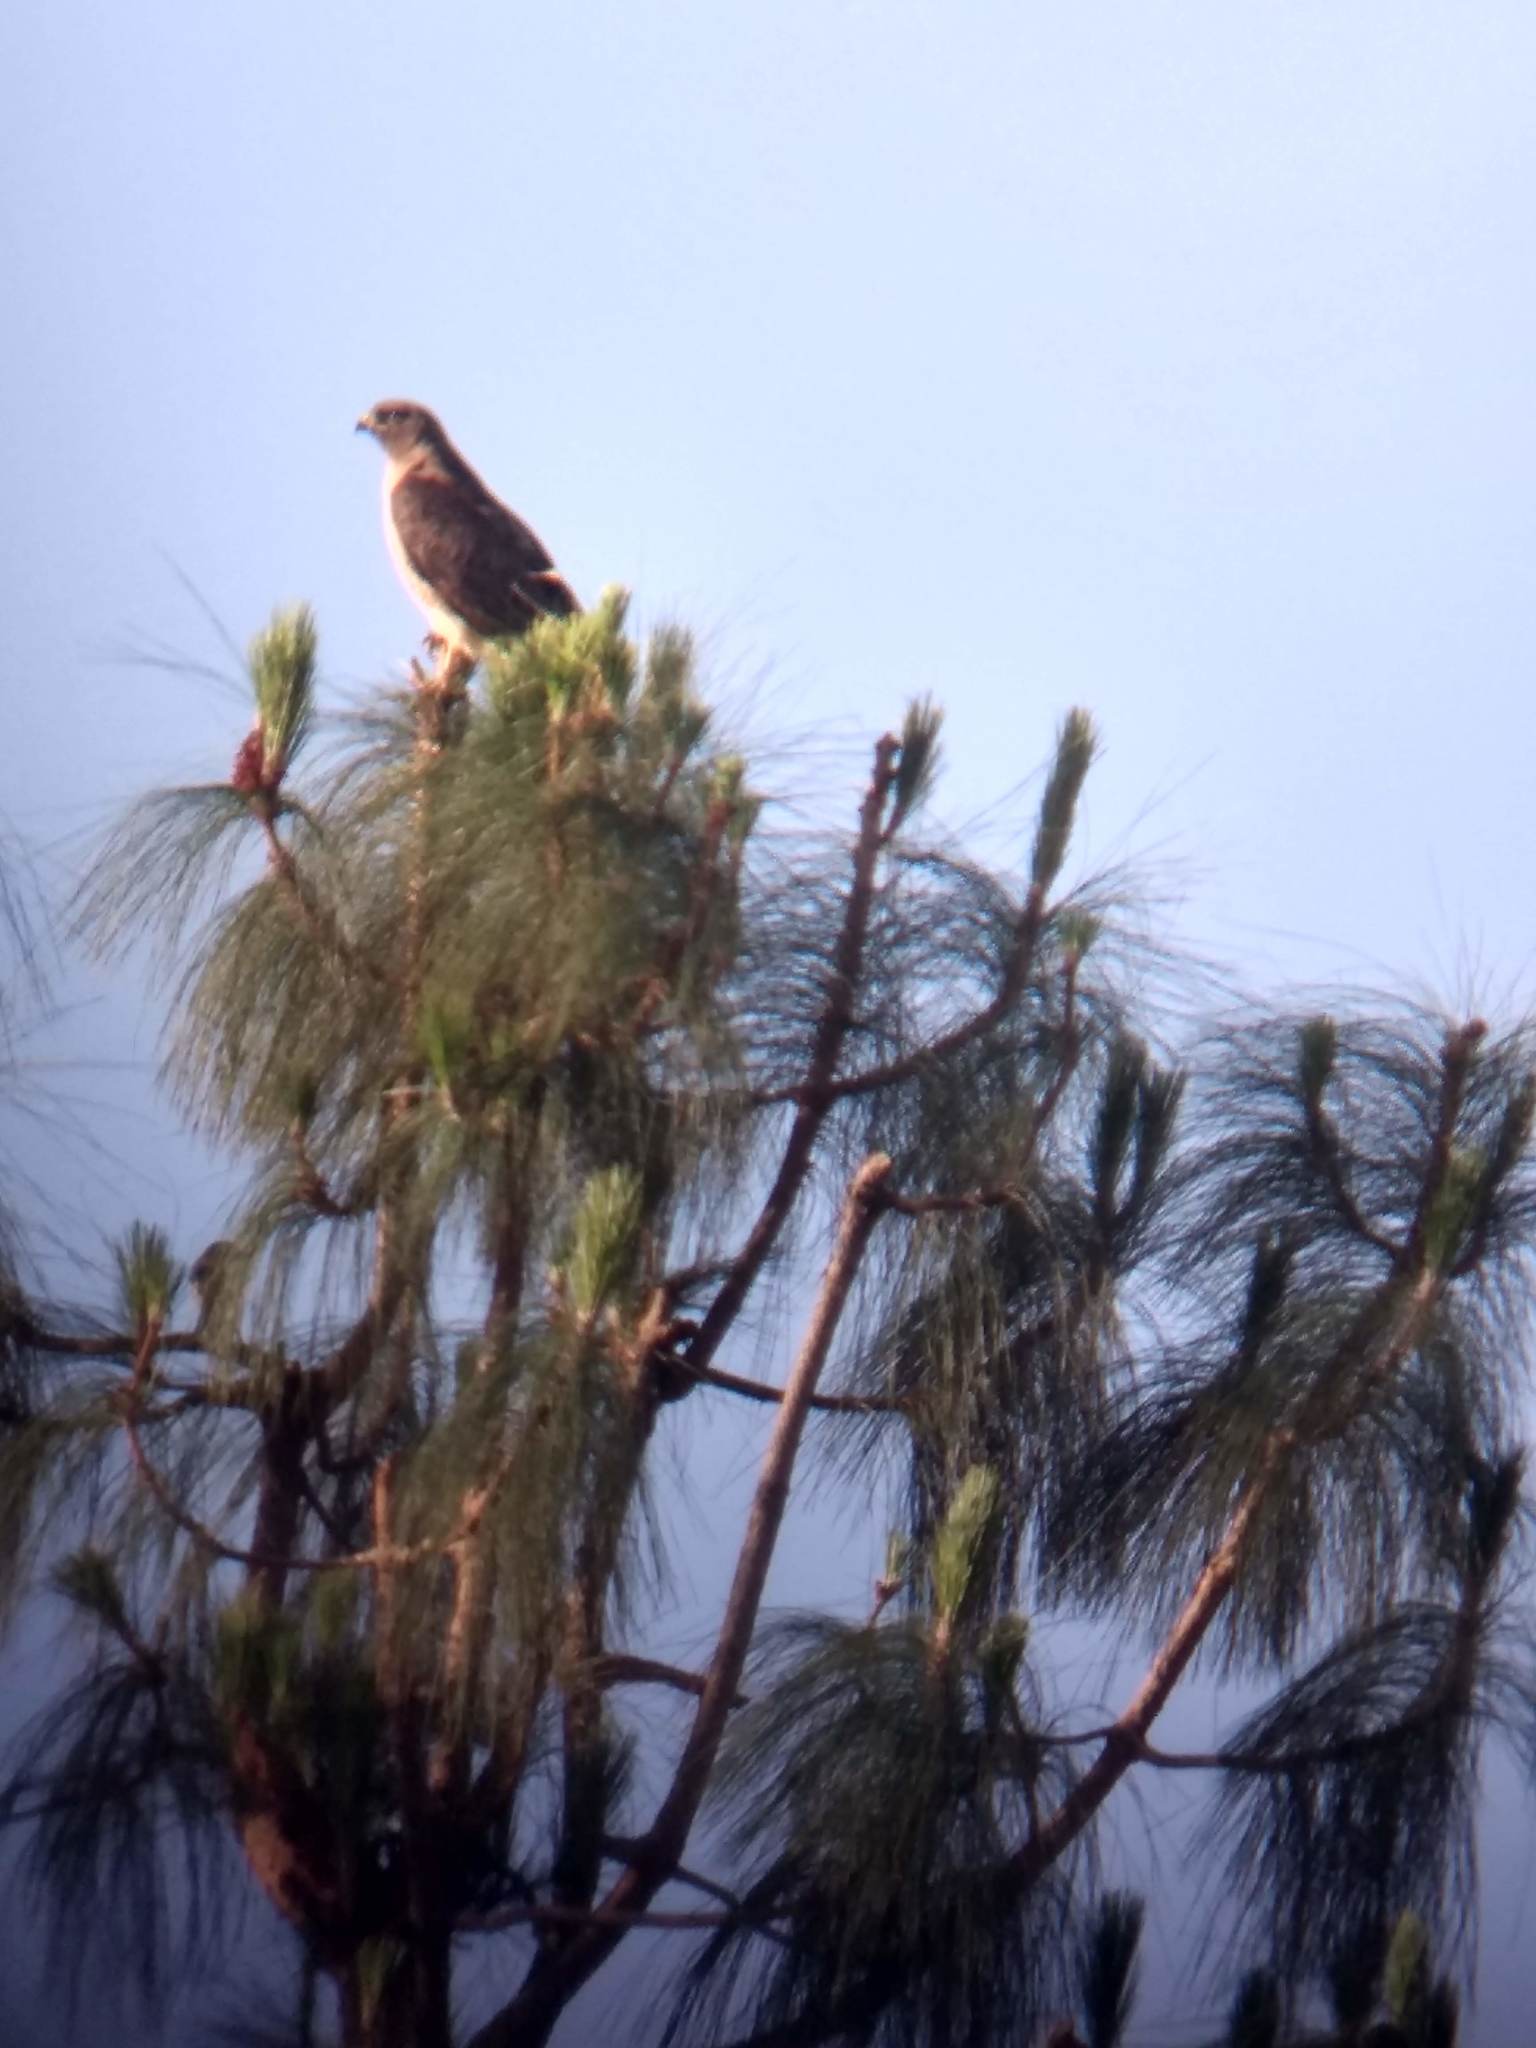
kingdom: Animalia
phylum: Chordata
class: Aves
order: Accipitriformes
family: Accipitridae
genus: Buteo
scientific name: Buteo jamaicensis
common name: Red-tailed hawk
